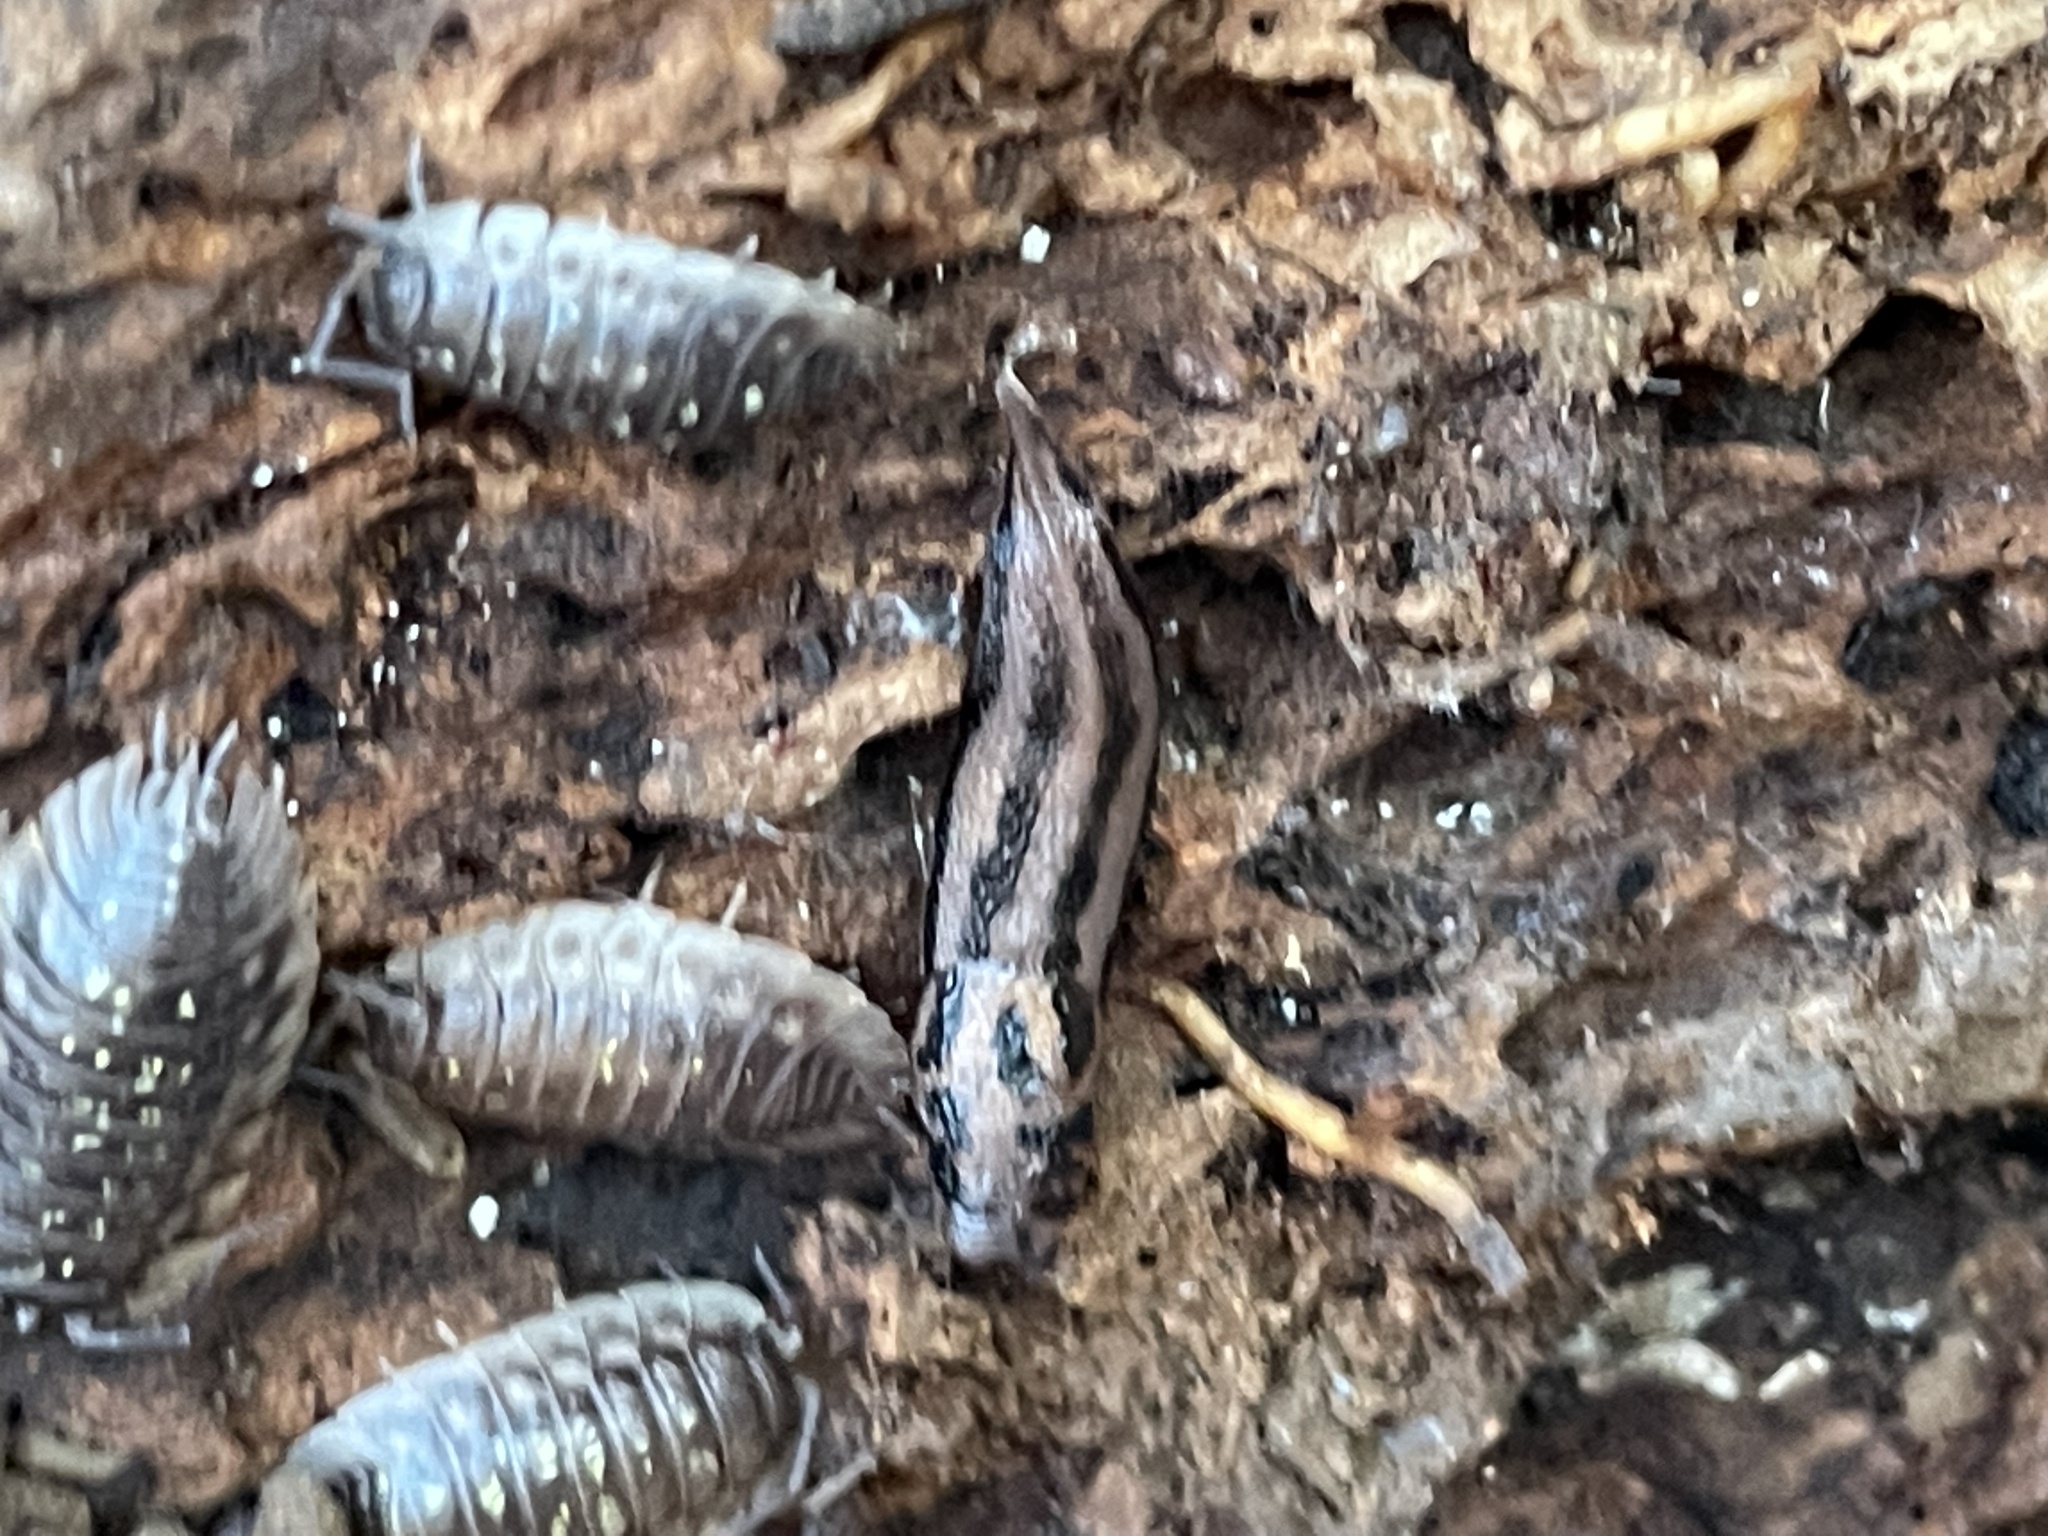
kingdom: Animalia
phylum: Mollusca
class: Gastropoda
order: Stylommatophora
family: Limacidae
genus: Limax
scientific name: Limax maximus
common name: Great grey slug
